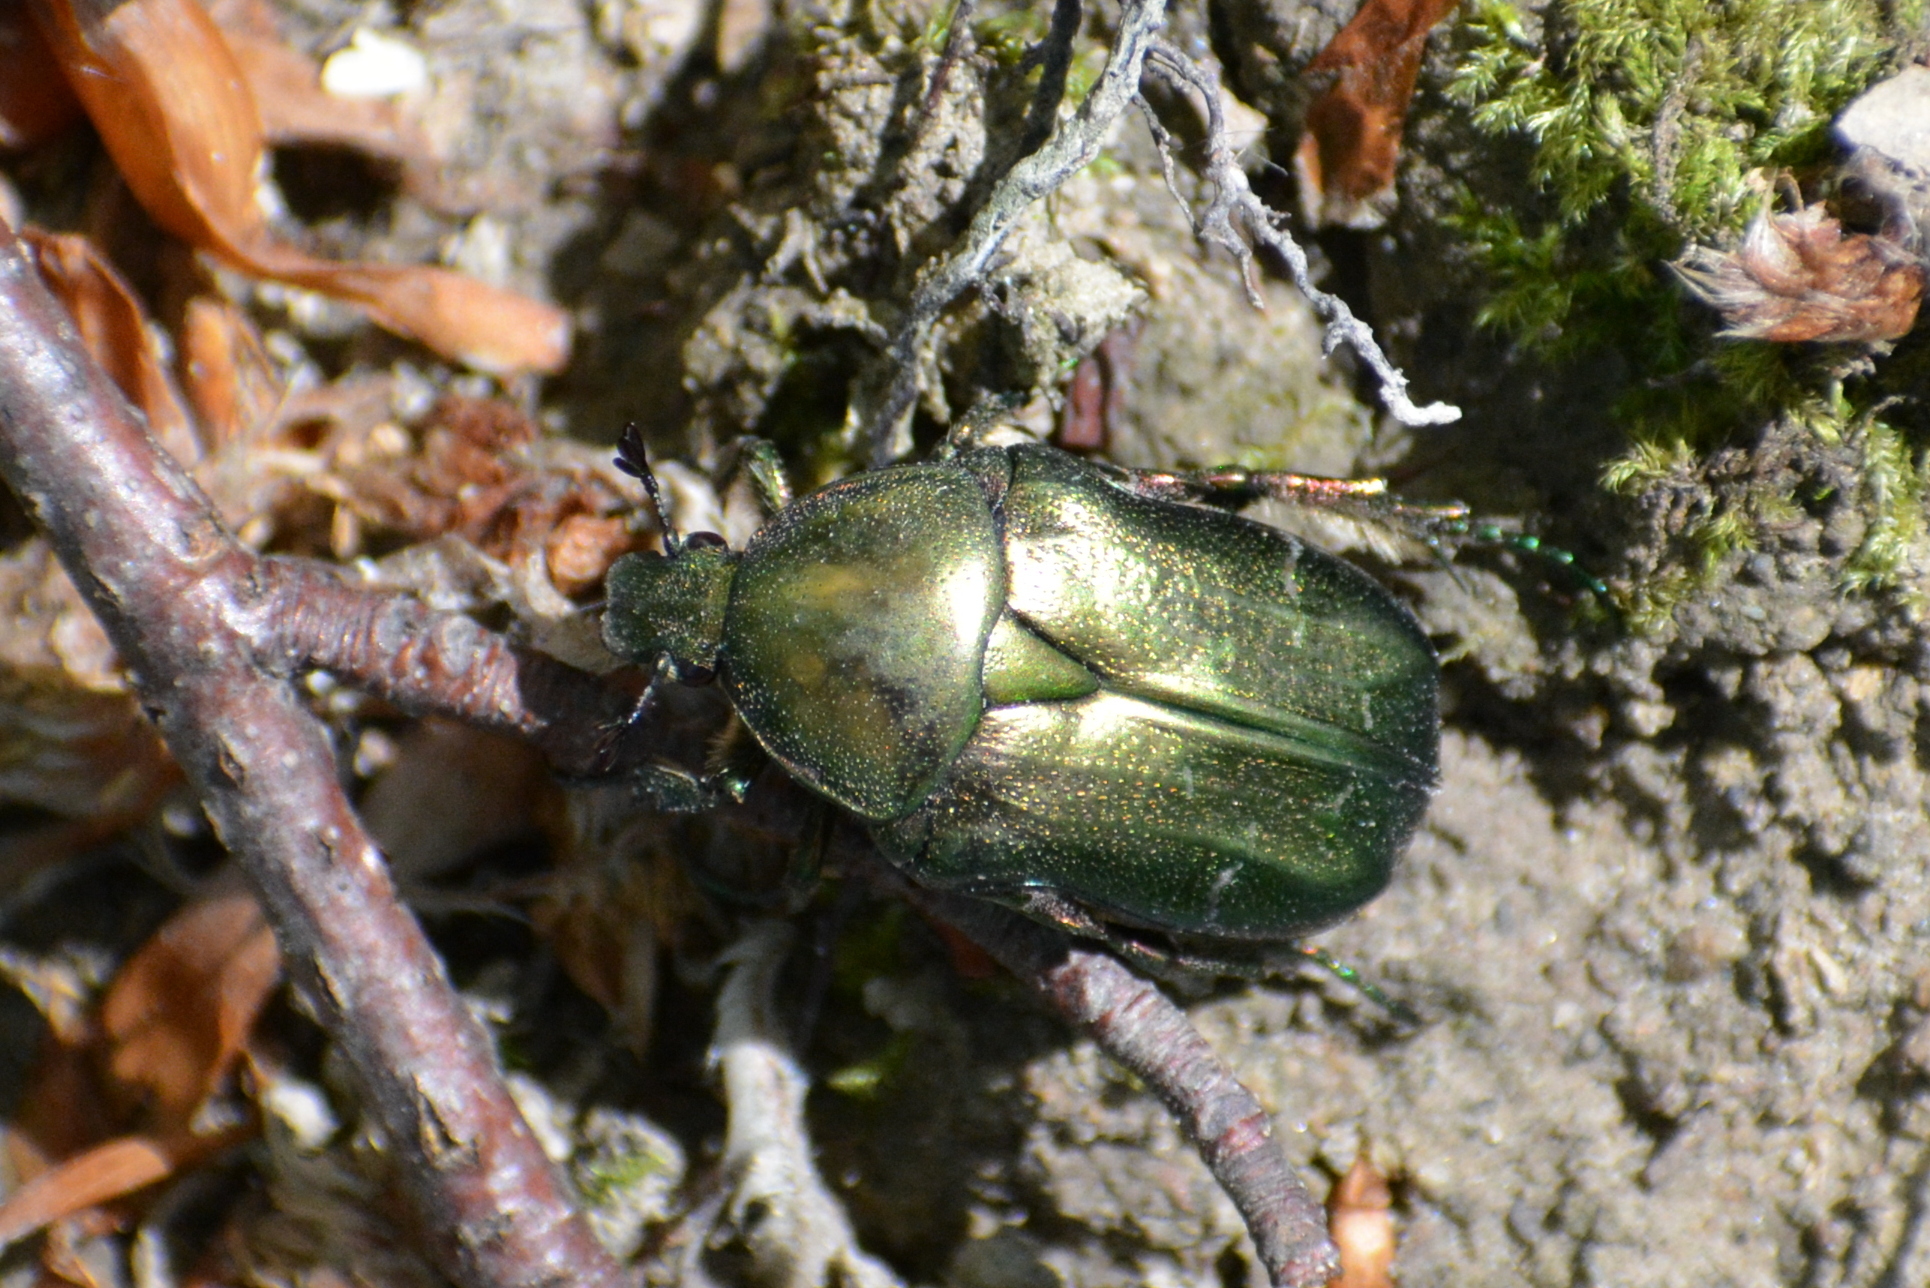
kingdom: Animalia
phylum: Arthropoda
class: Insecta
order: Coleoptera
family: Scarabaeidae
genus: Cetonia
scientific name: Cetonia aurata
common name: Rose chafer
